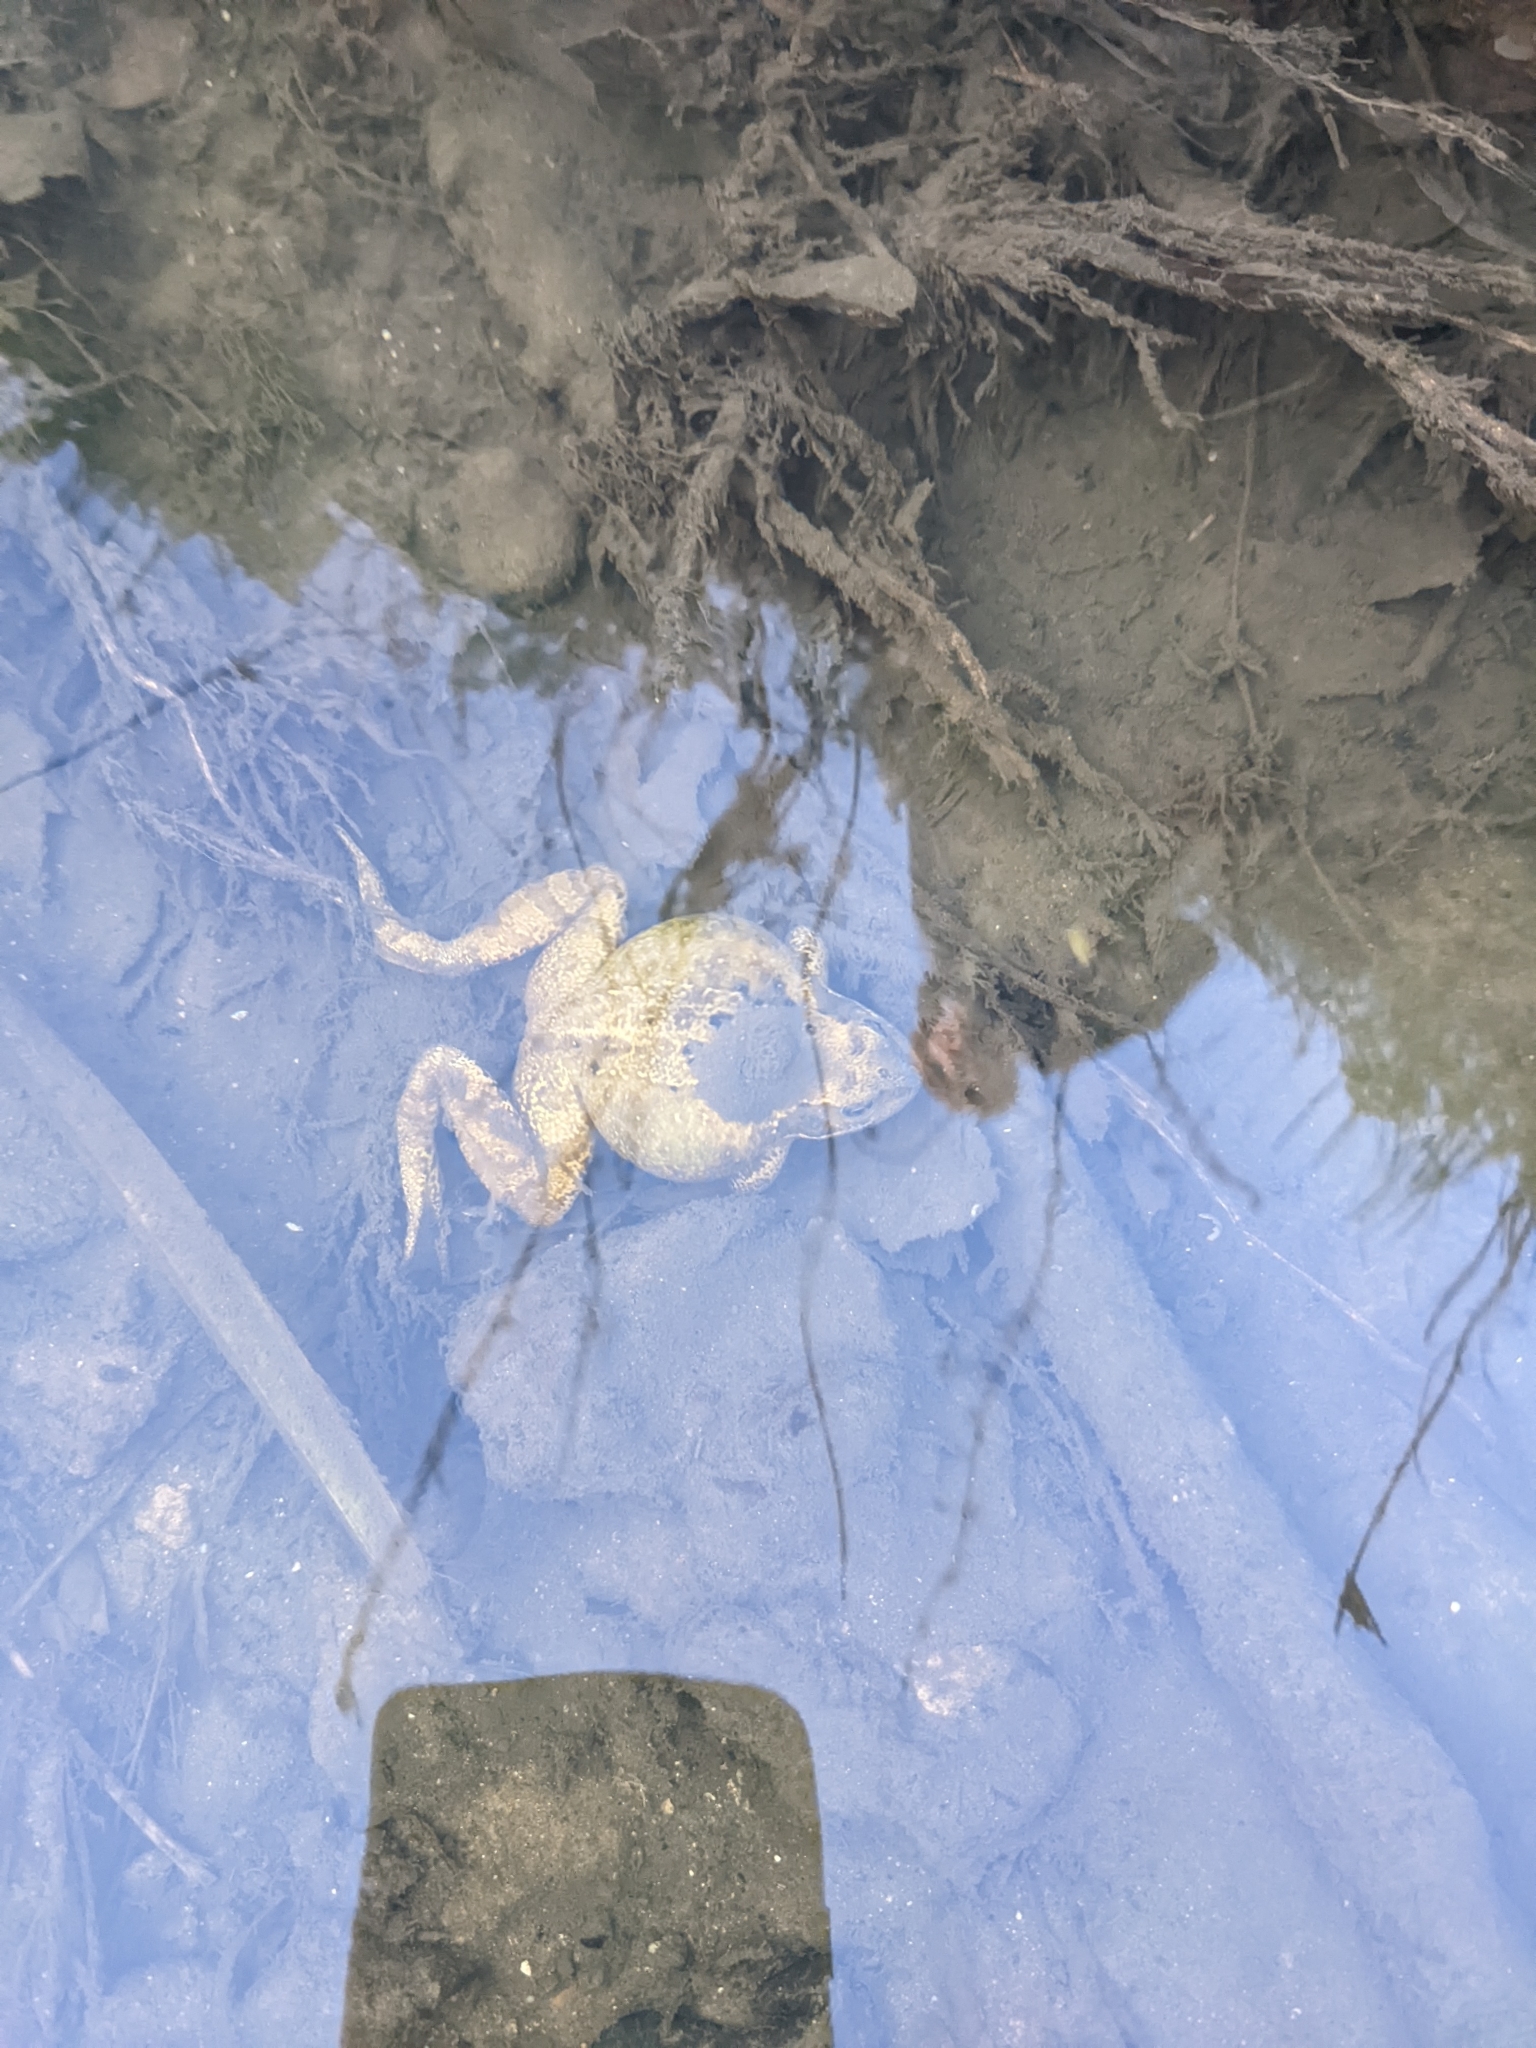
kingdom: Animalia
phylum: Chordata
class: Amphibia
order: Anura
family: Ranidae
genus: Rana
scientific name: Rana temporaria
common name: Common frog
